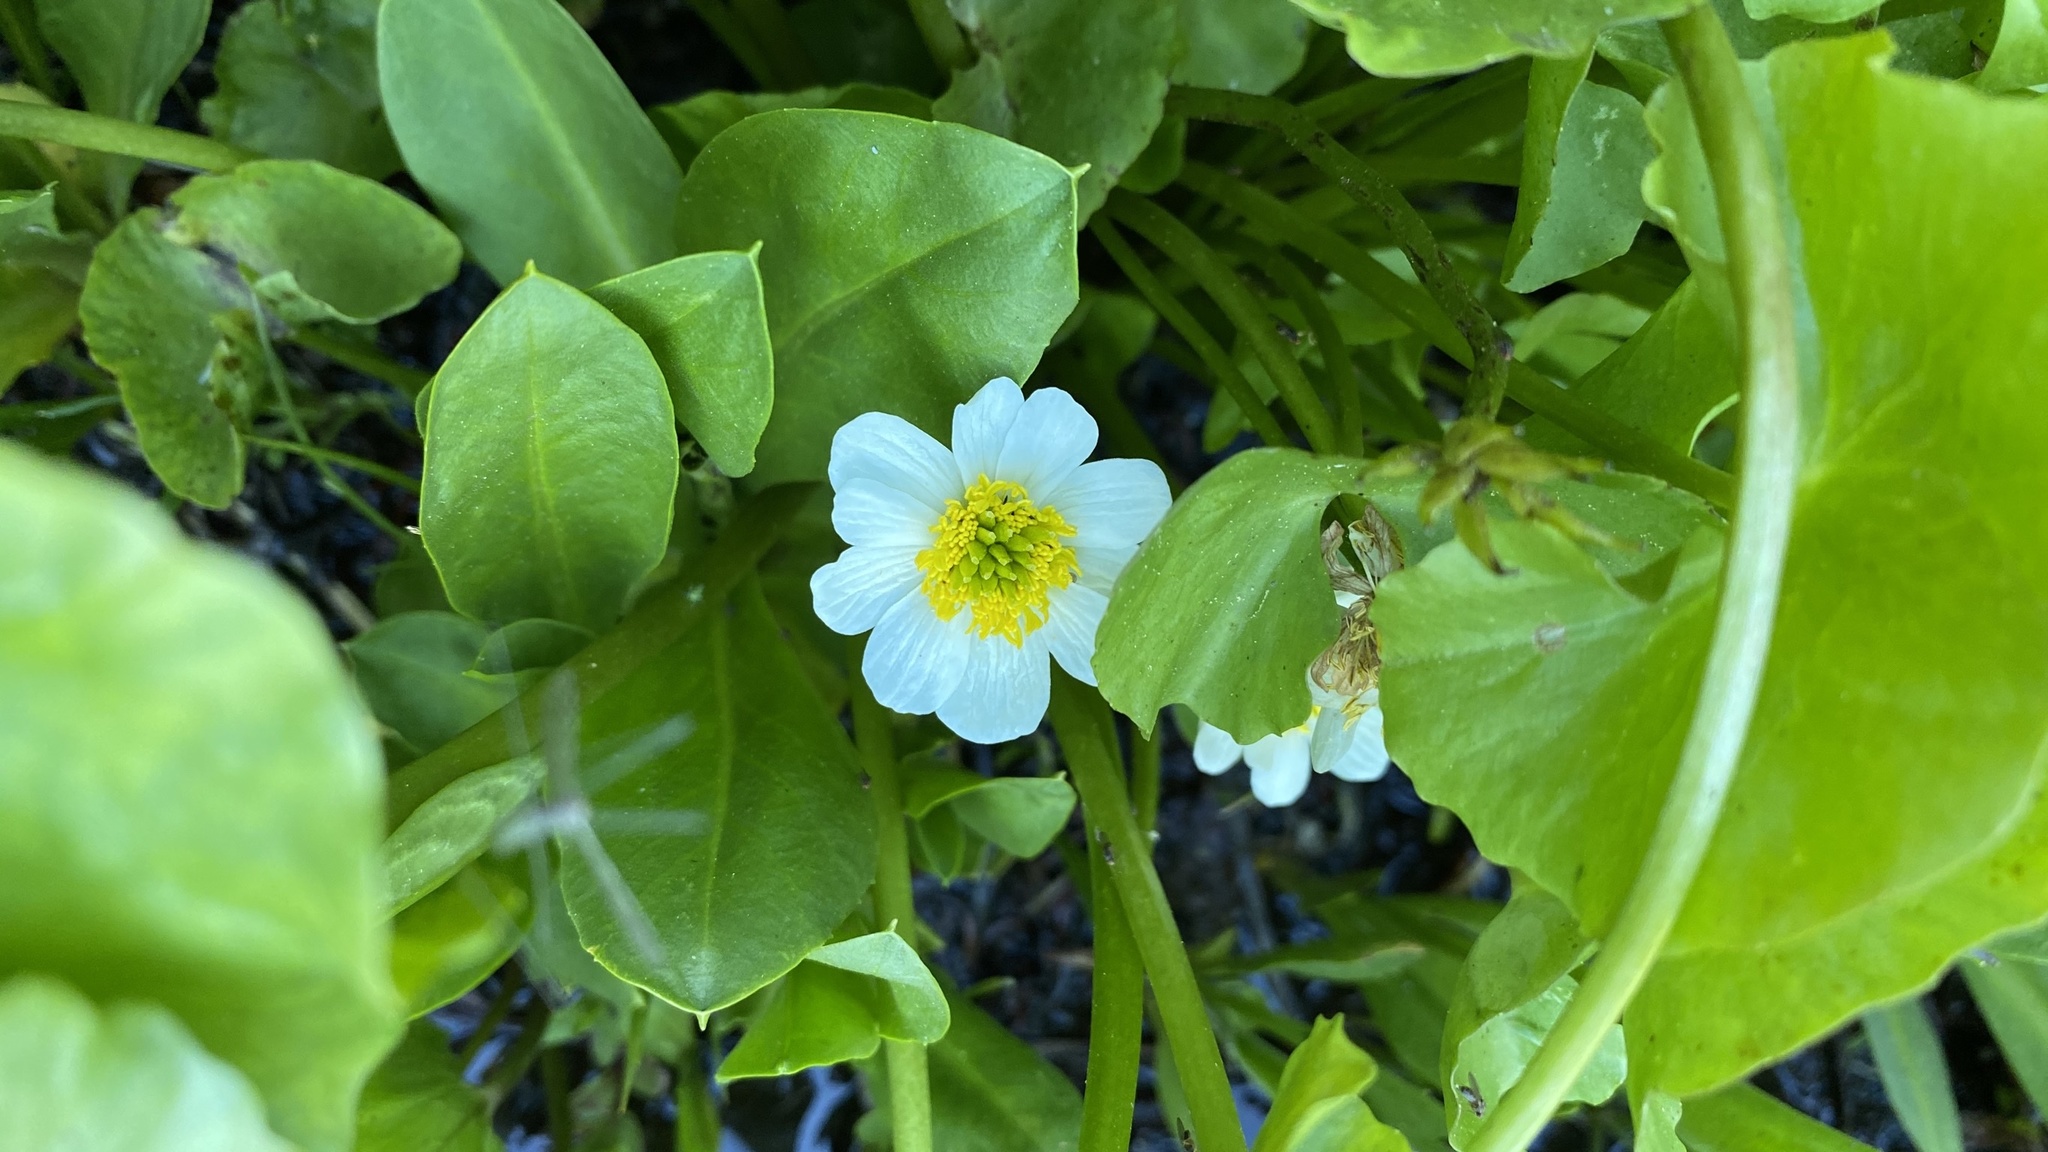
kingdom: Plantae
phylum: Tracheophyta
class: Magnoliopsida
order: Ranunculales
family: Ranunculaceae
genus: Caltha
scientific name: Caltha leptosepala
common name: Elkslip
